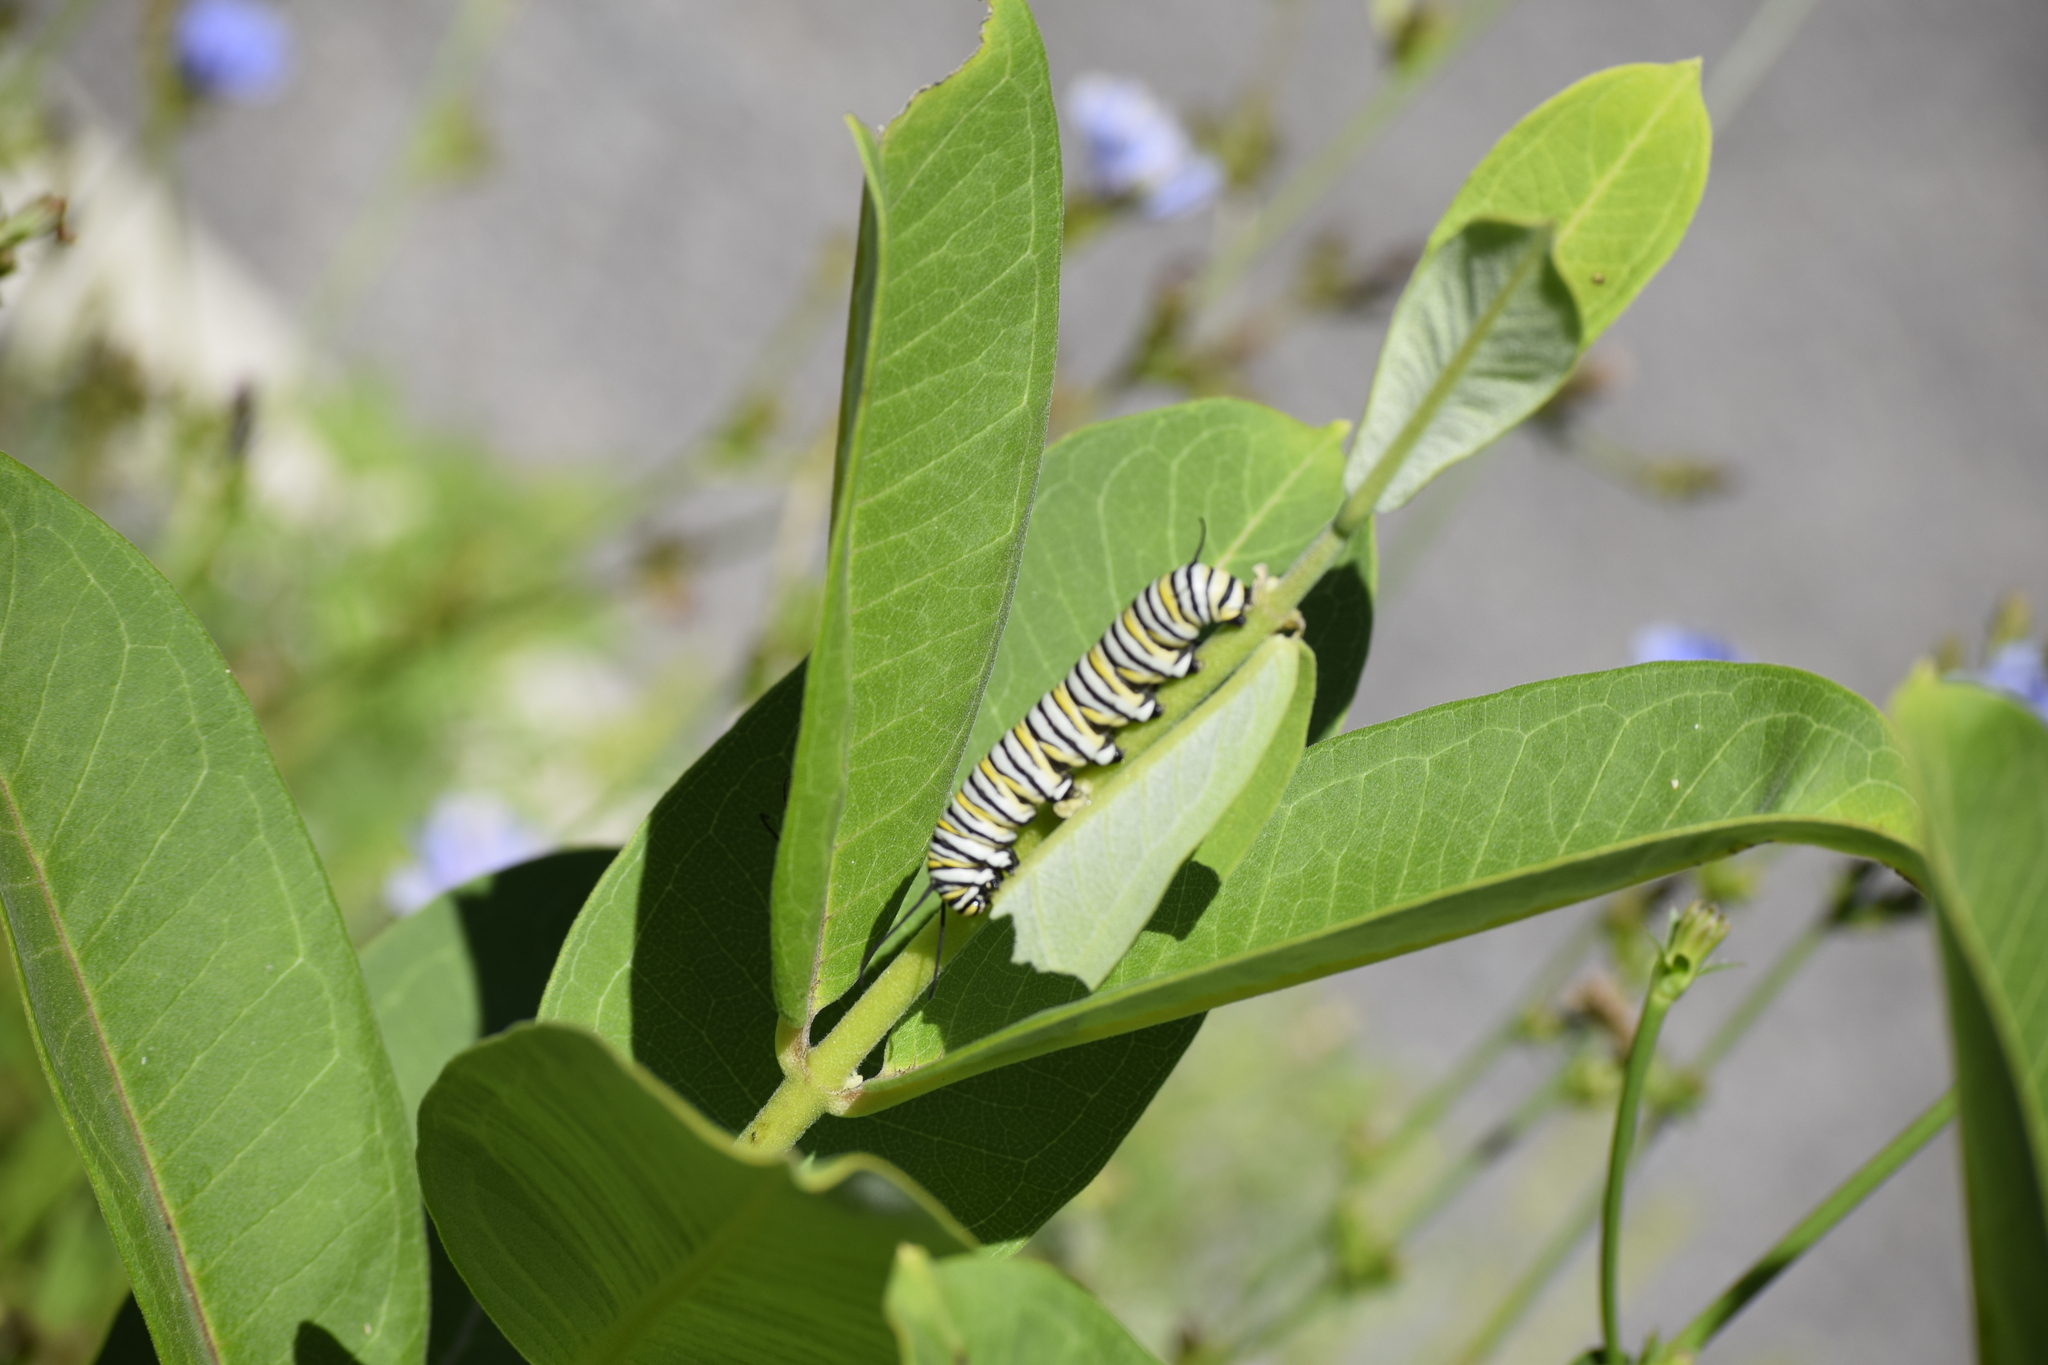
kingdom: Animalia
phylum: Arthropoda
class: Insecta
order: Lepidoptera
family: Nymphalidae
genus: Danaus
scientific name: Danaus plexippus
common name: Monarch
